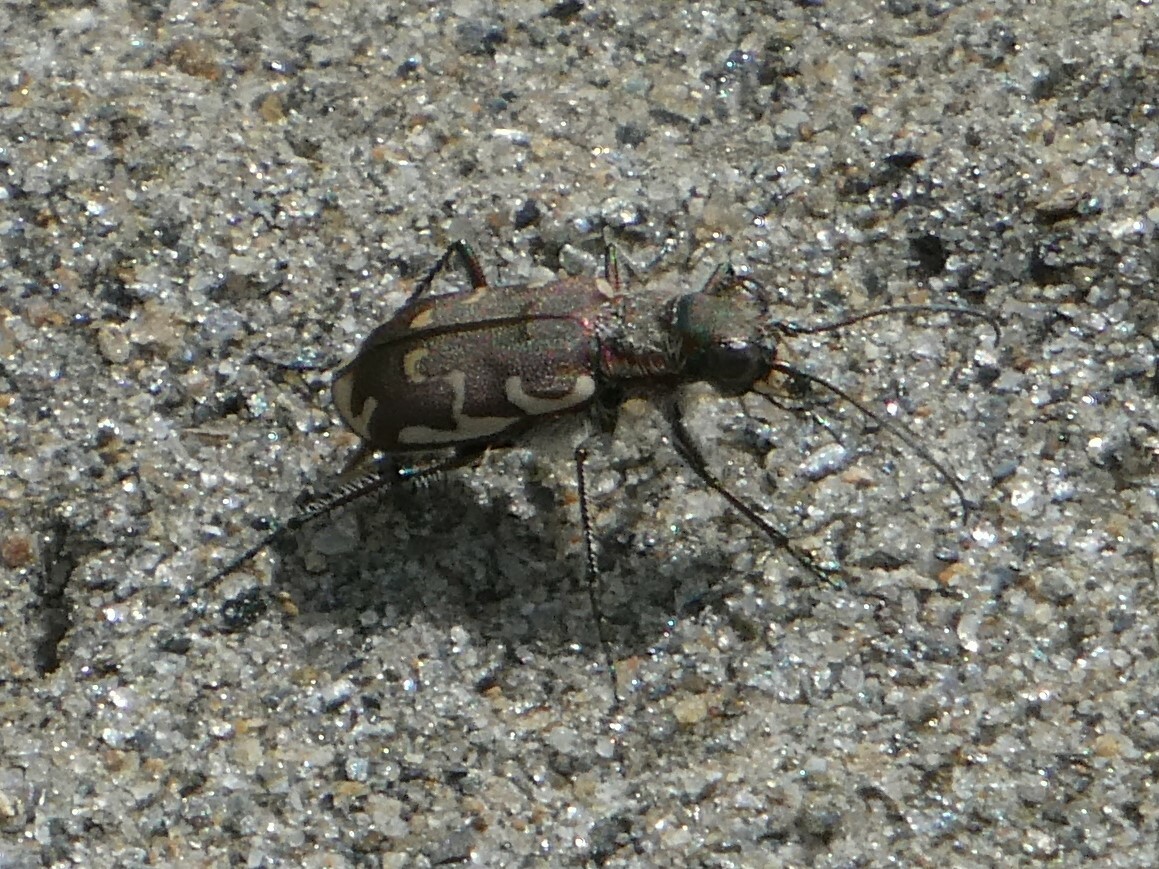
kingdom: Animalia
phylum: Arthropoda
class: Insecta
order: Coleoptera
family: Carabidae
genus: Cicindela
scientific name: Cicindela repanda
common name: Bronzed tiger beetle
